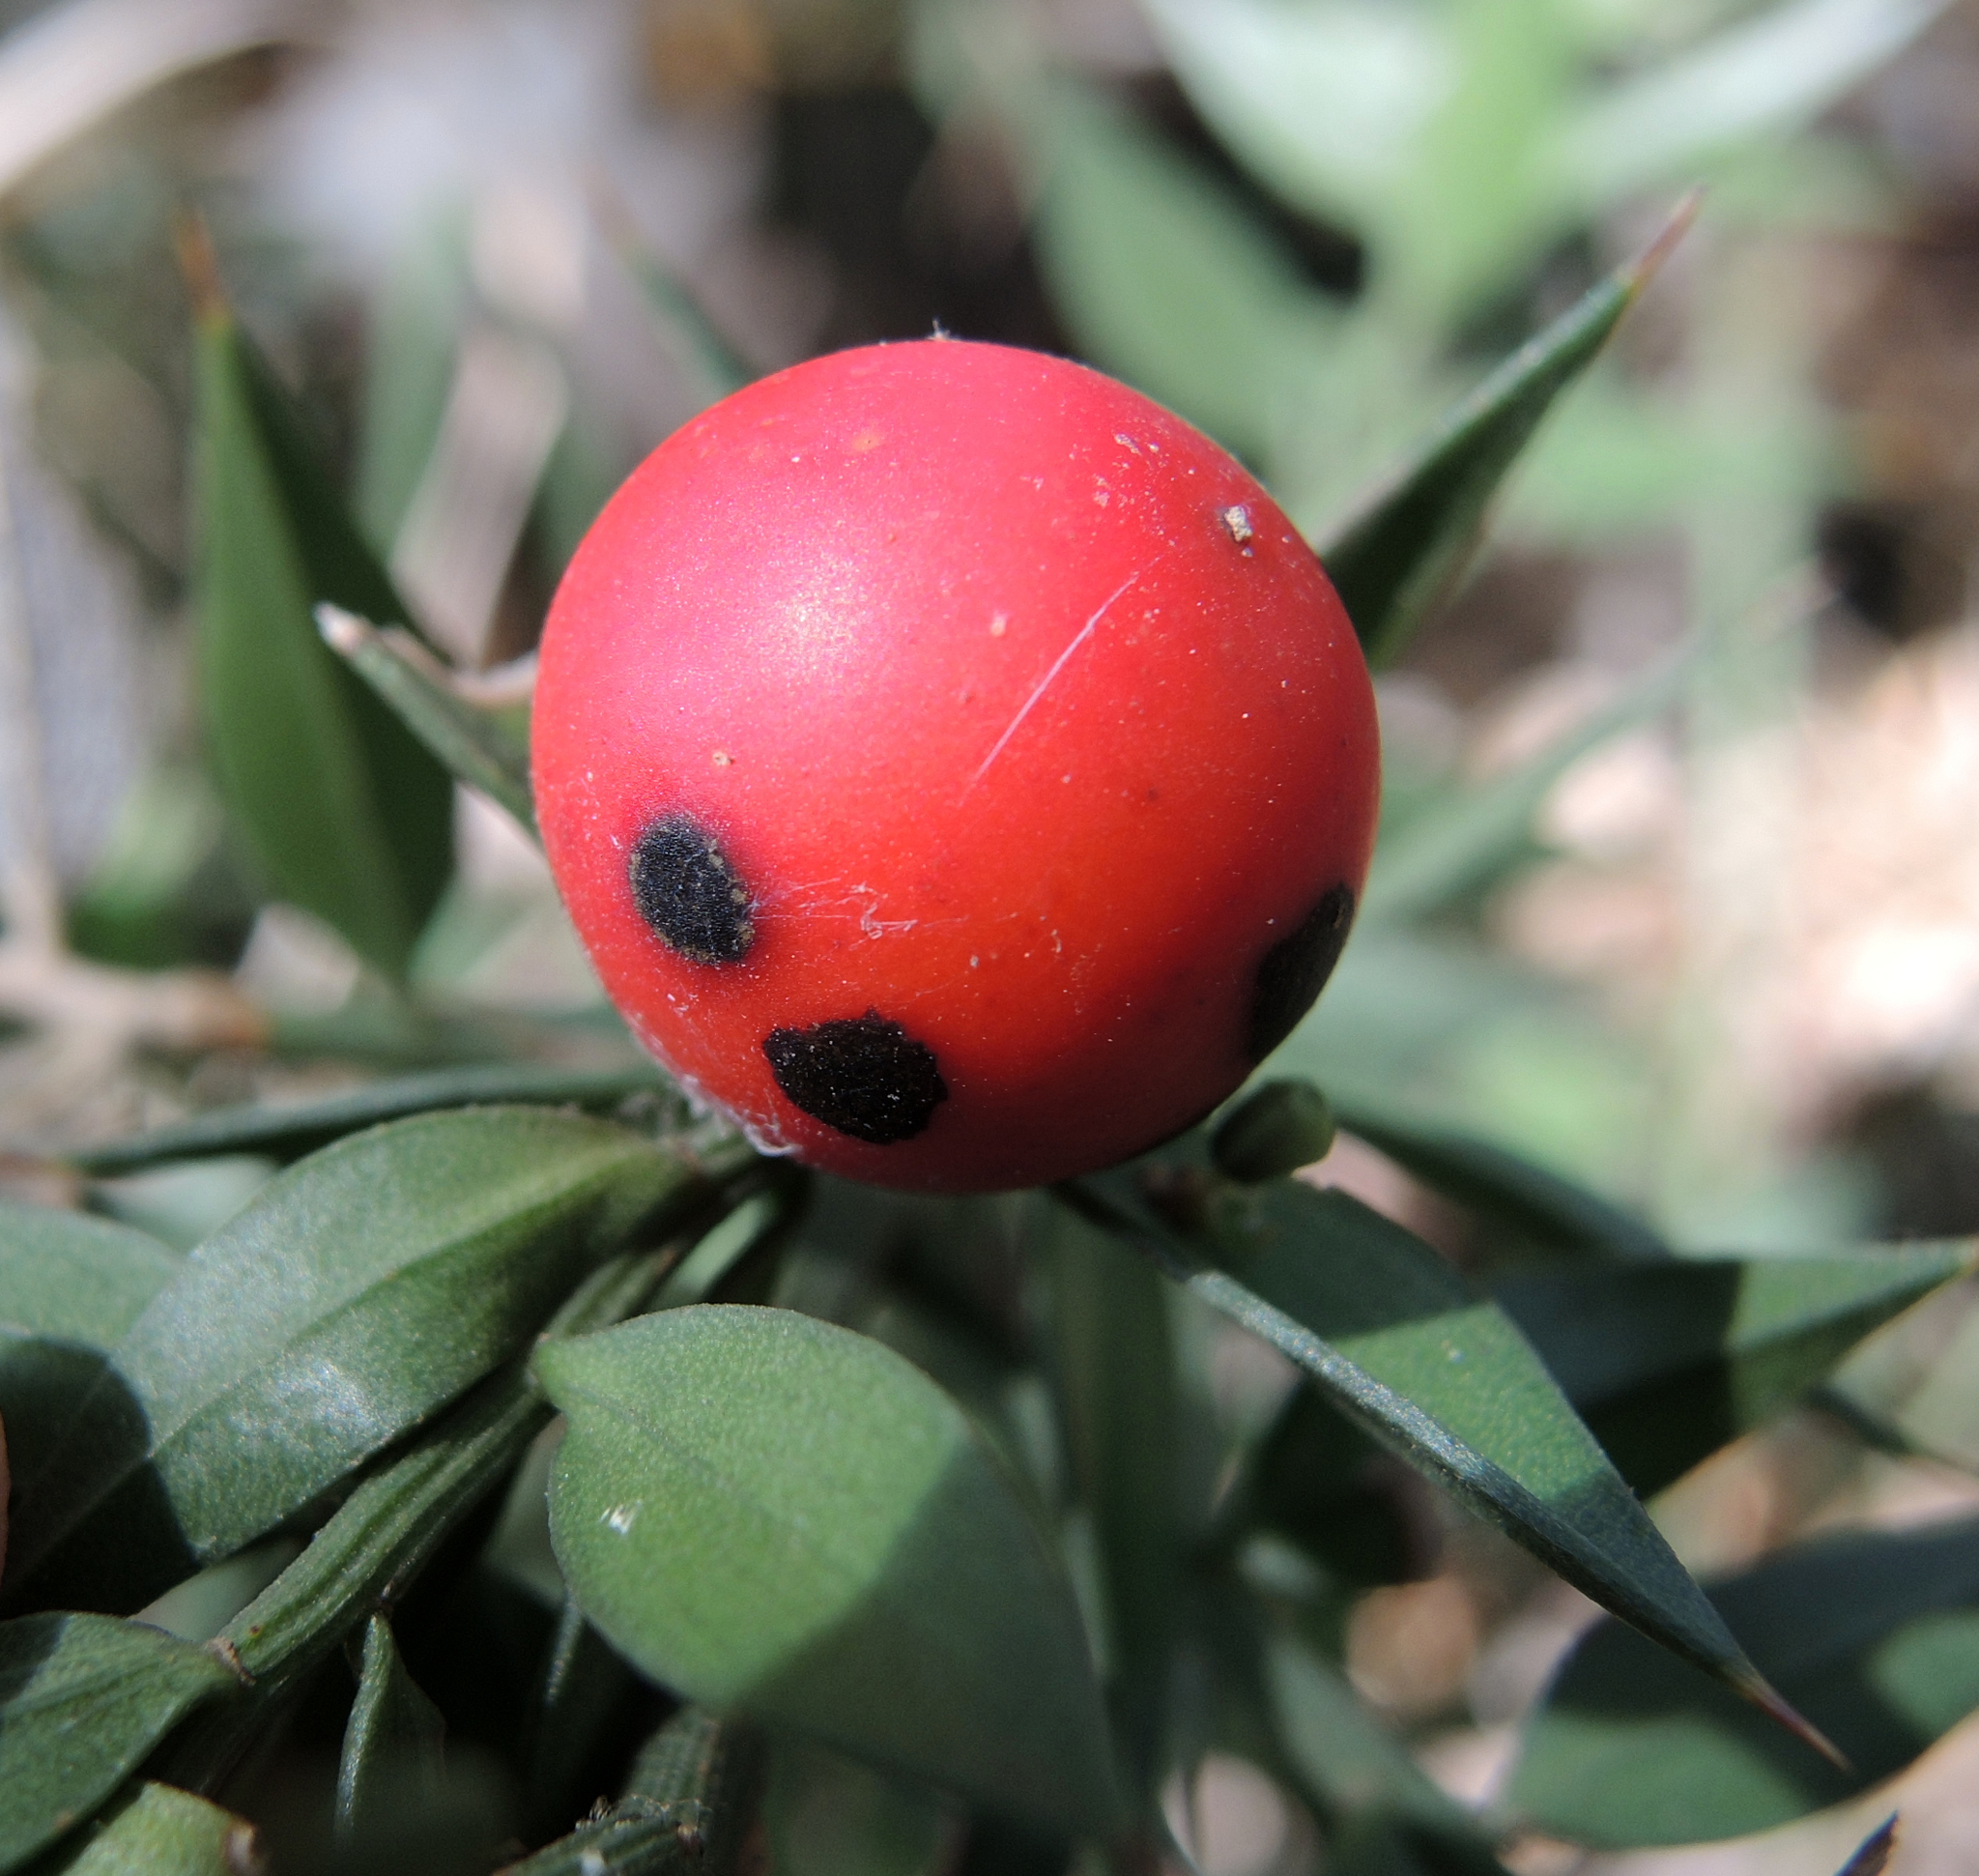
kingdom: Plantae
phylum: Tracheophyta
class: Liliopsida
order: Asparagales
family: Asparagaceae
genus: Ruscus
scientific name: Ruscus aculeatus
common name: Butcher's-broom
